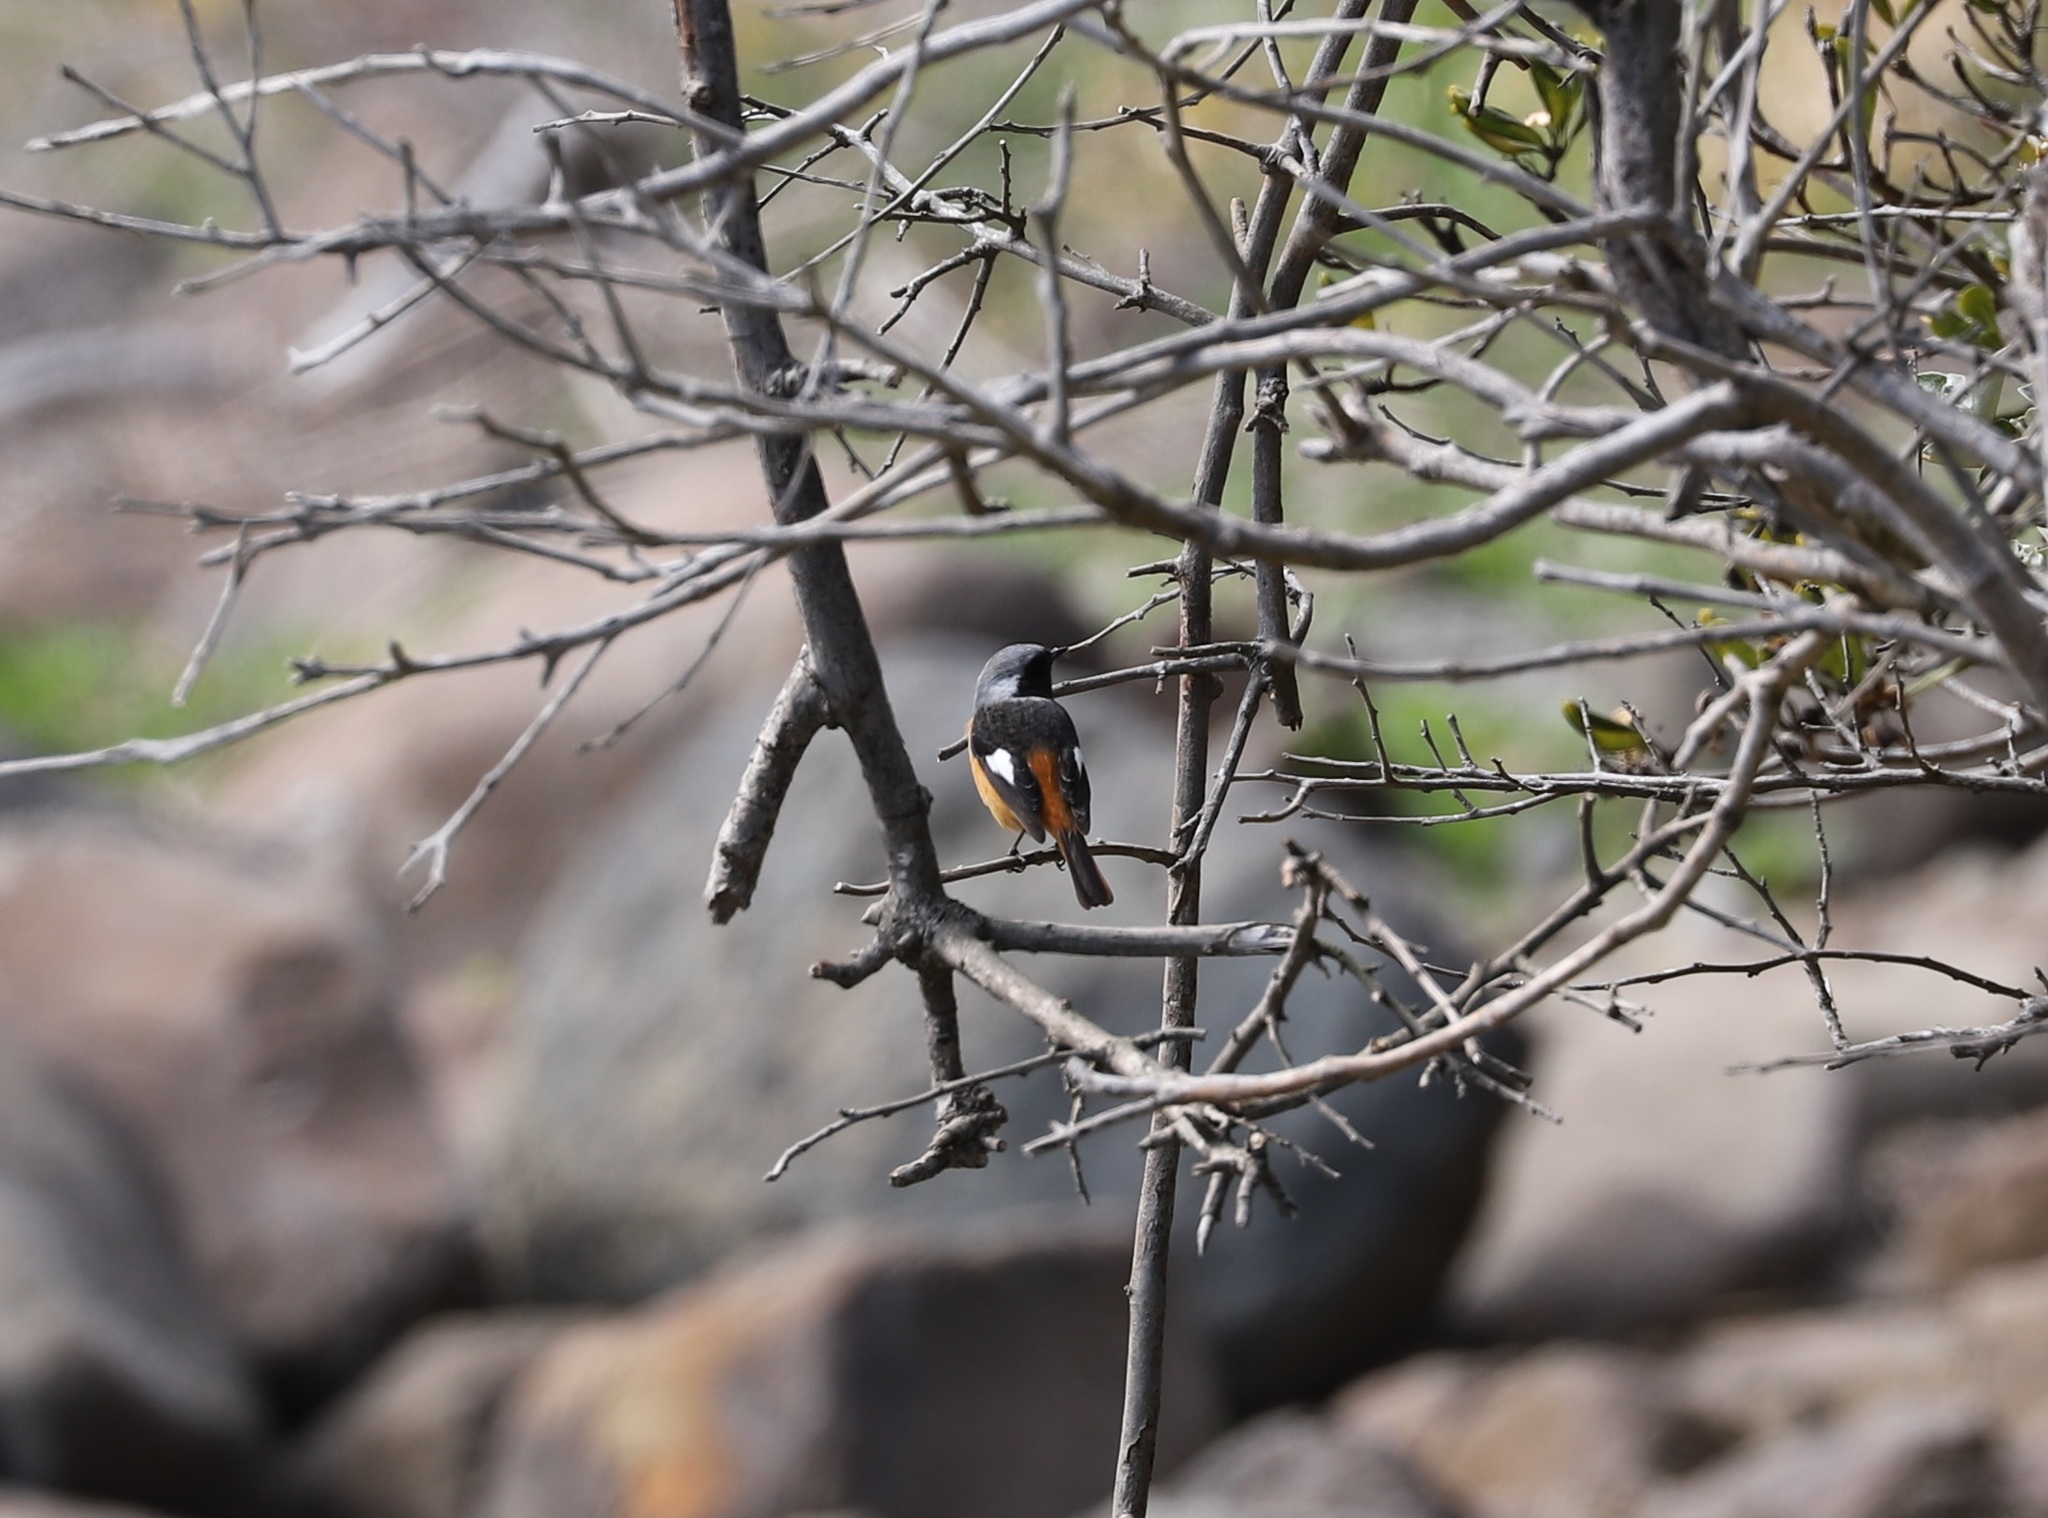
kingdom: Animalia
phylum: Chordata
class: Aves
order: Passeriformes
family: Muscicapidae
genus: Phoenicurus
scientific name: Phoenicurus auroreus
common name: Daurian redstart
